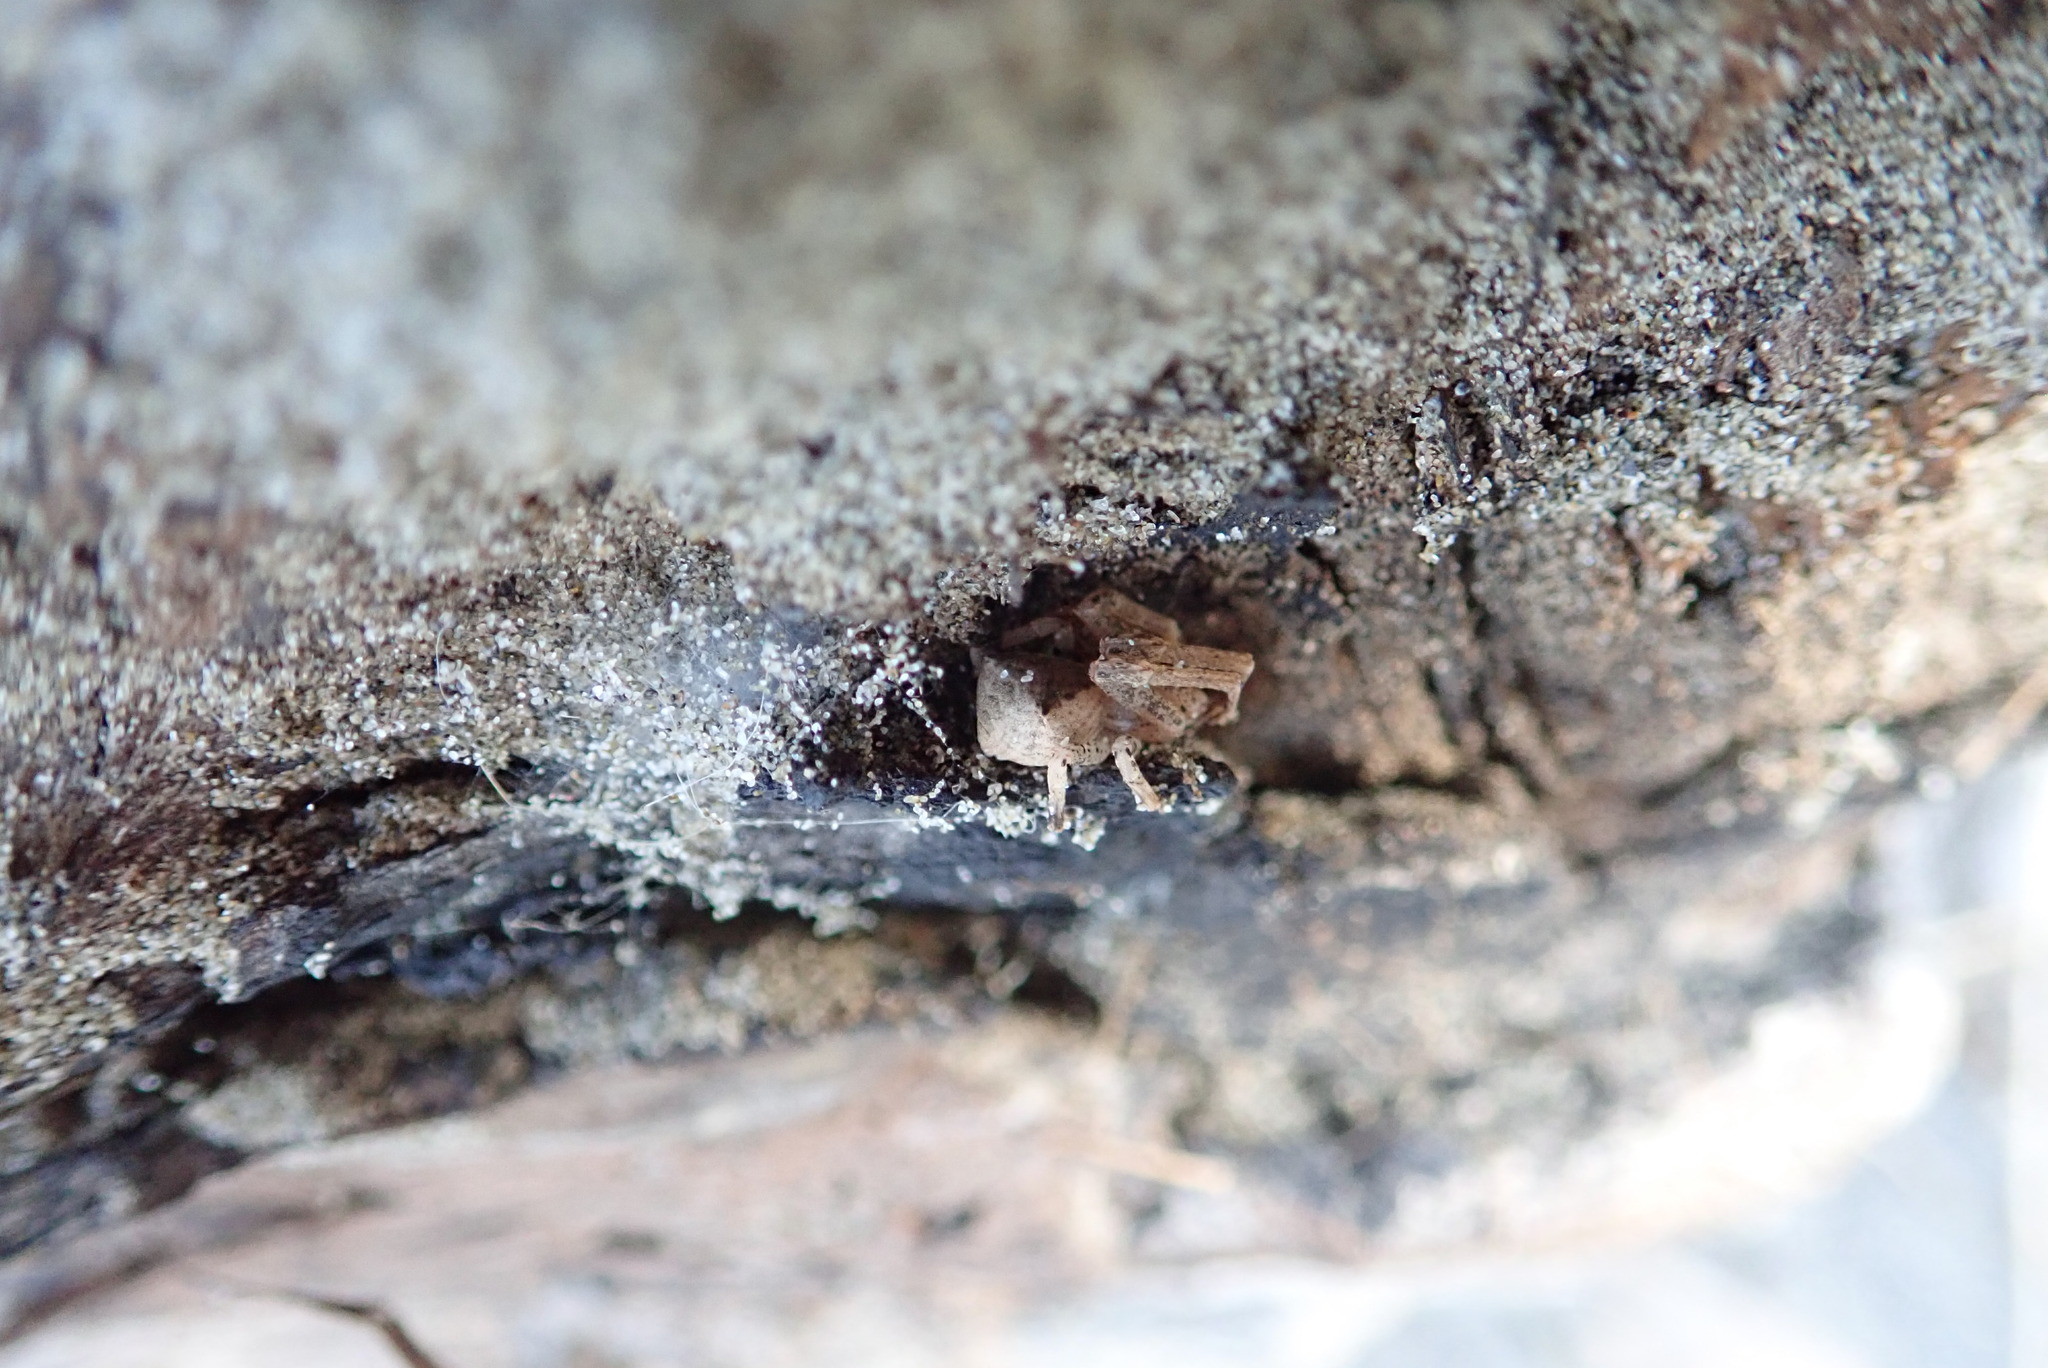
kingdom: Animalia
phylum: Arthropoda
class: Arachnida
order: Araneae
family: Thomisidae
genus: Sidymella
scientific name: Sidymella trapezia
